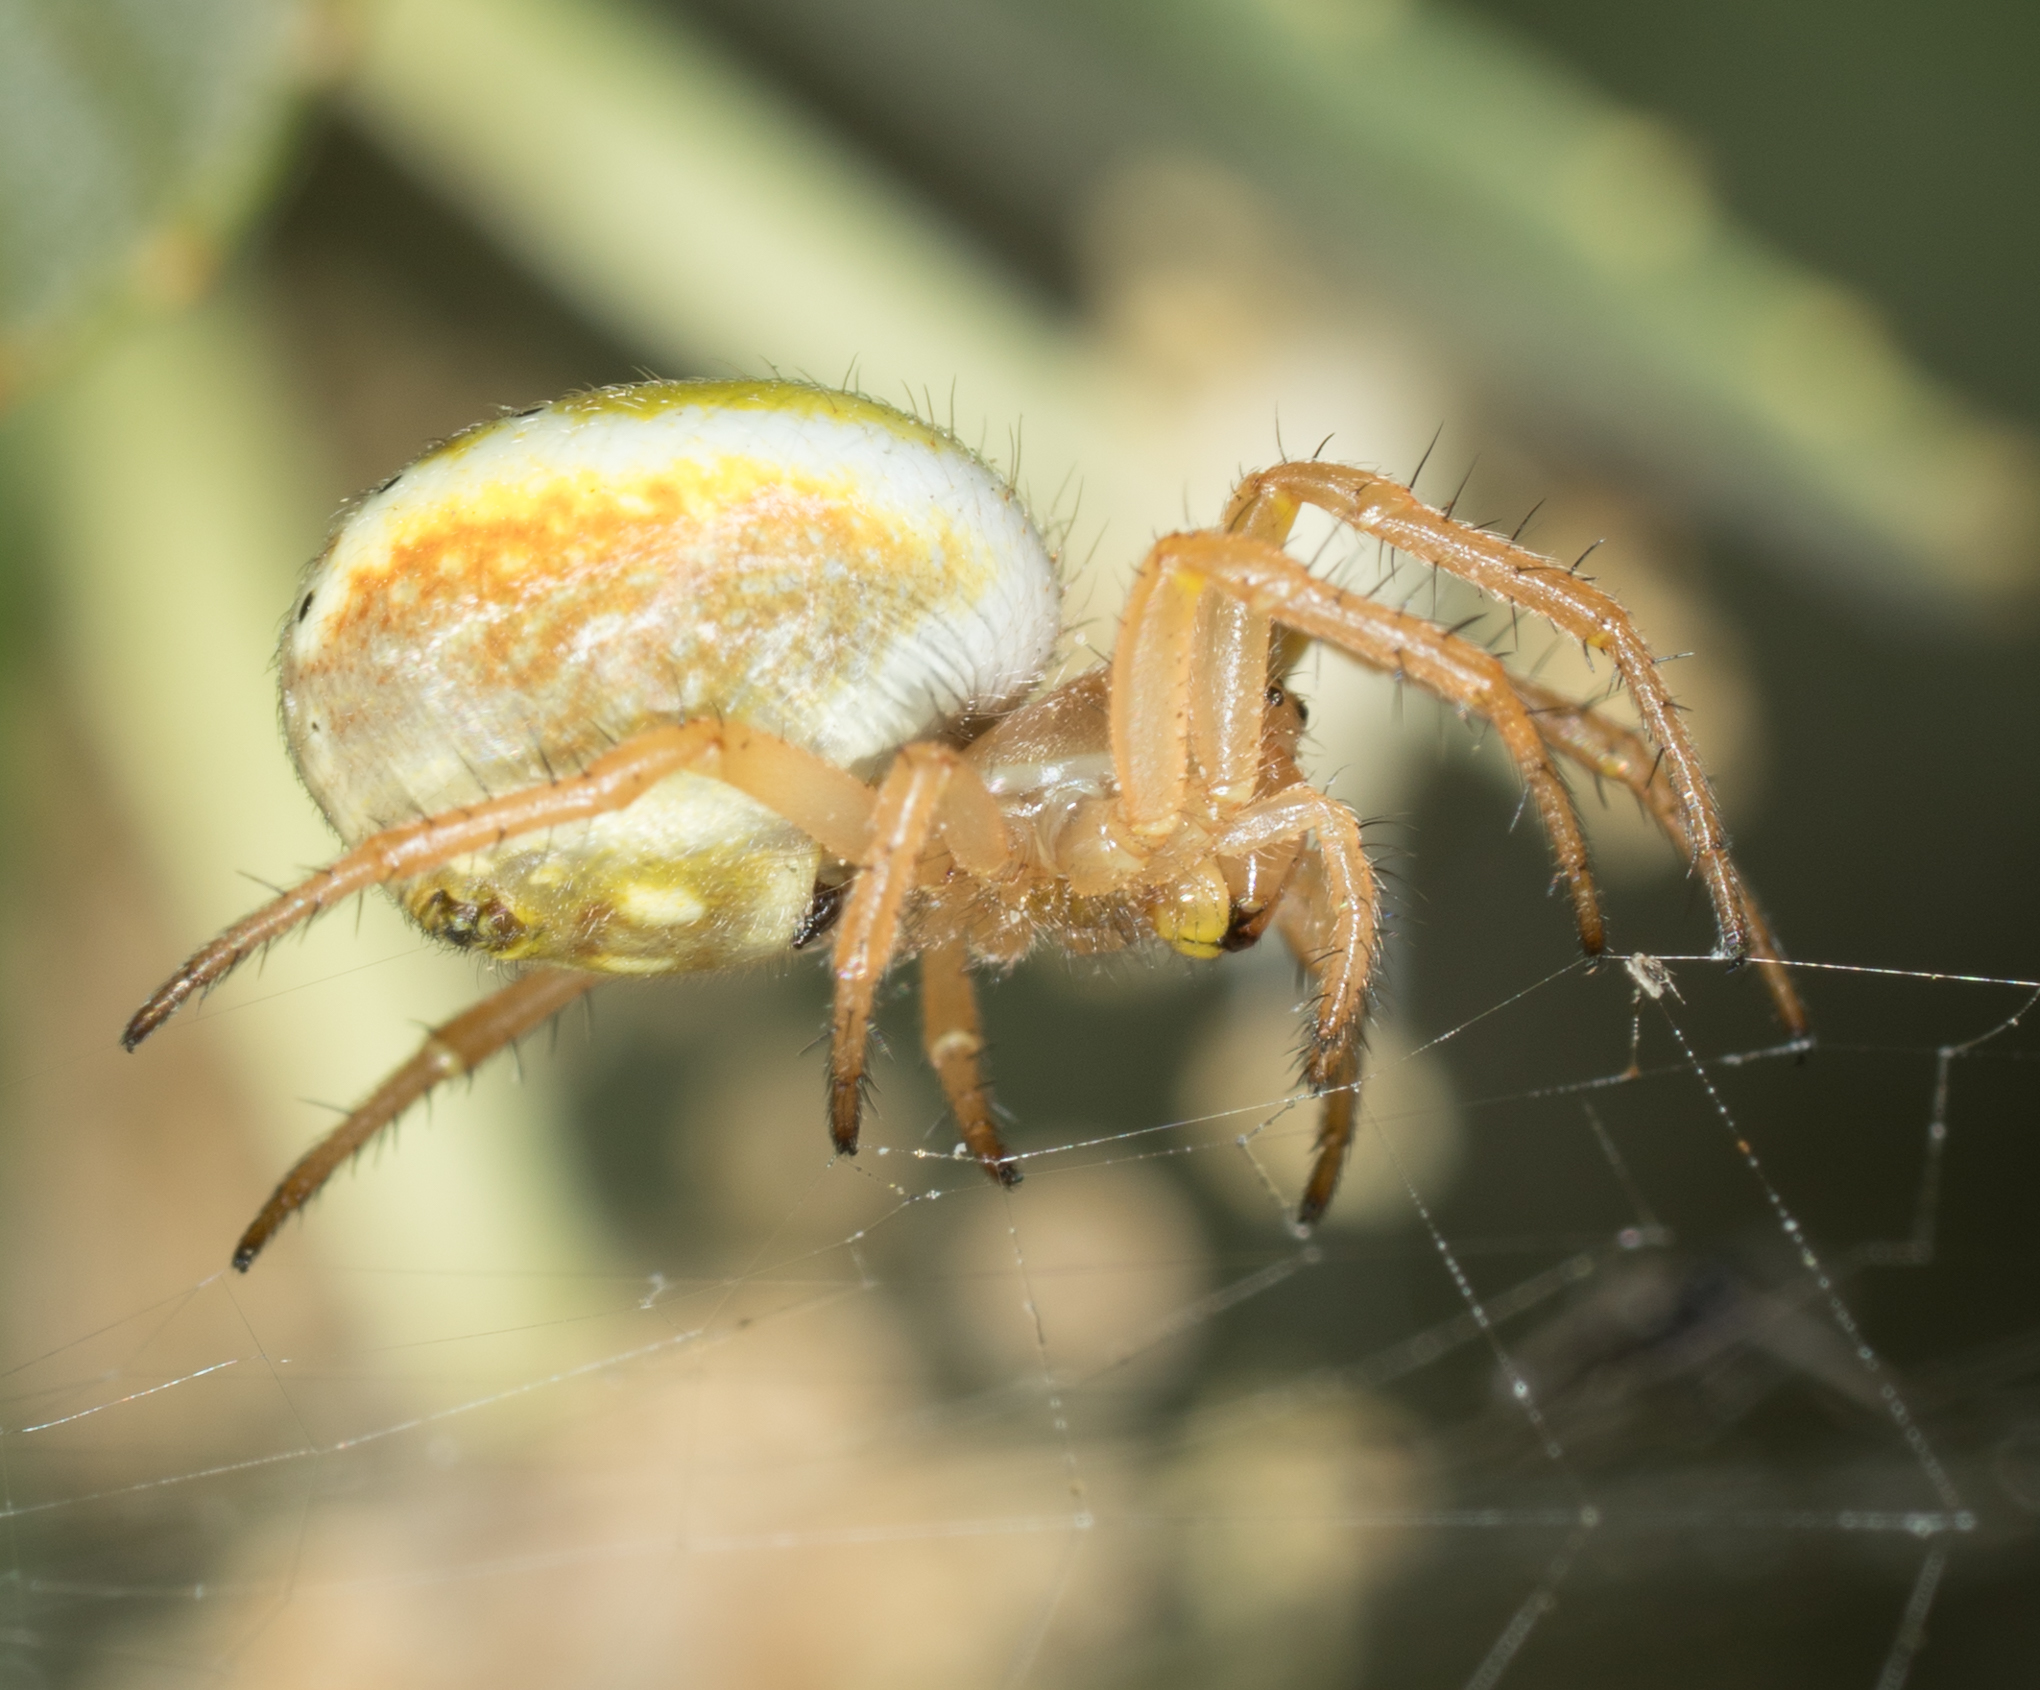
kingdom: Animalia
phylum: Arthropoda
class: Arachnida
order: Araneae
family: Araneidae
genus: Araniella
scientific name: Araniella displicata
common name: Sixspotted orb weaver
